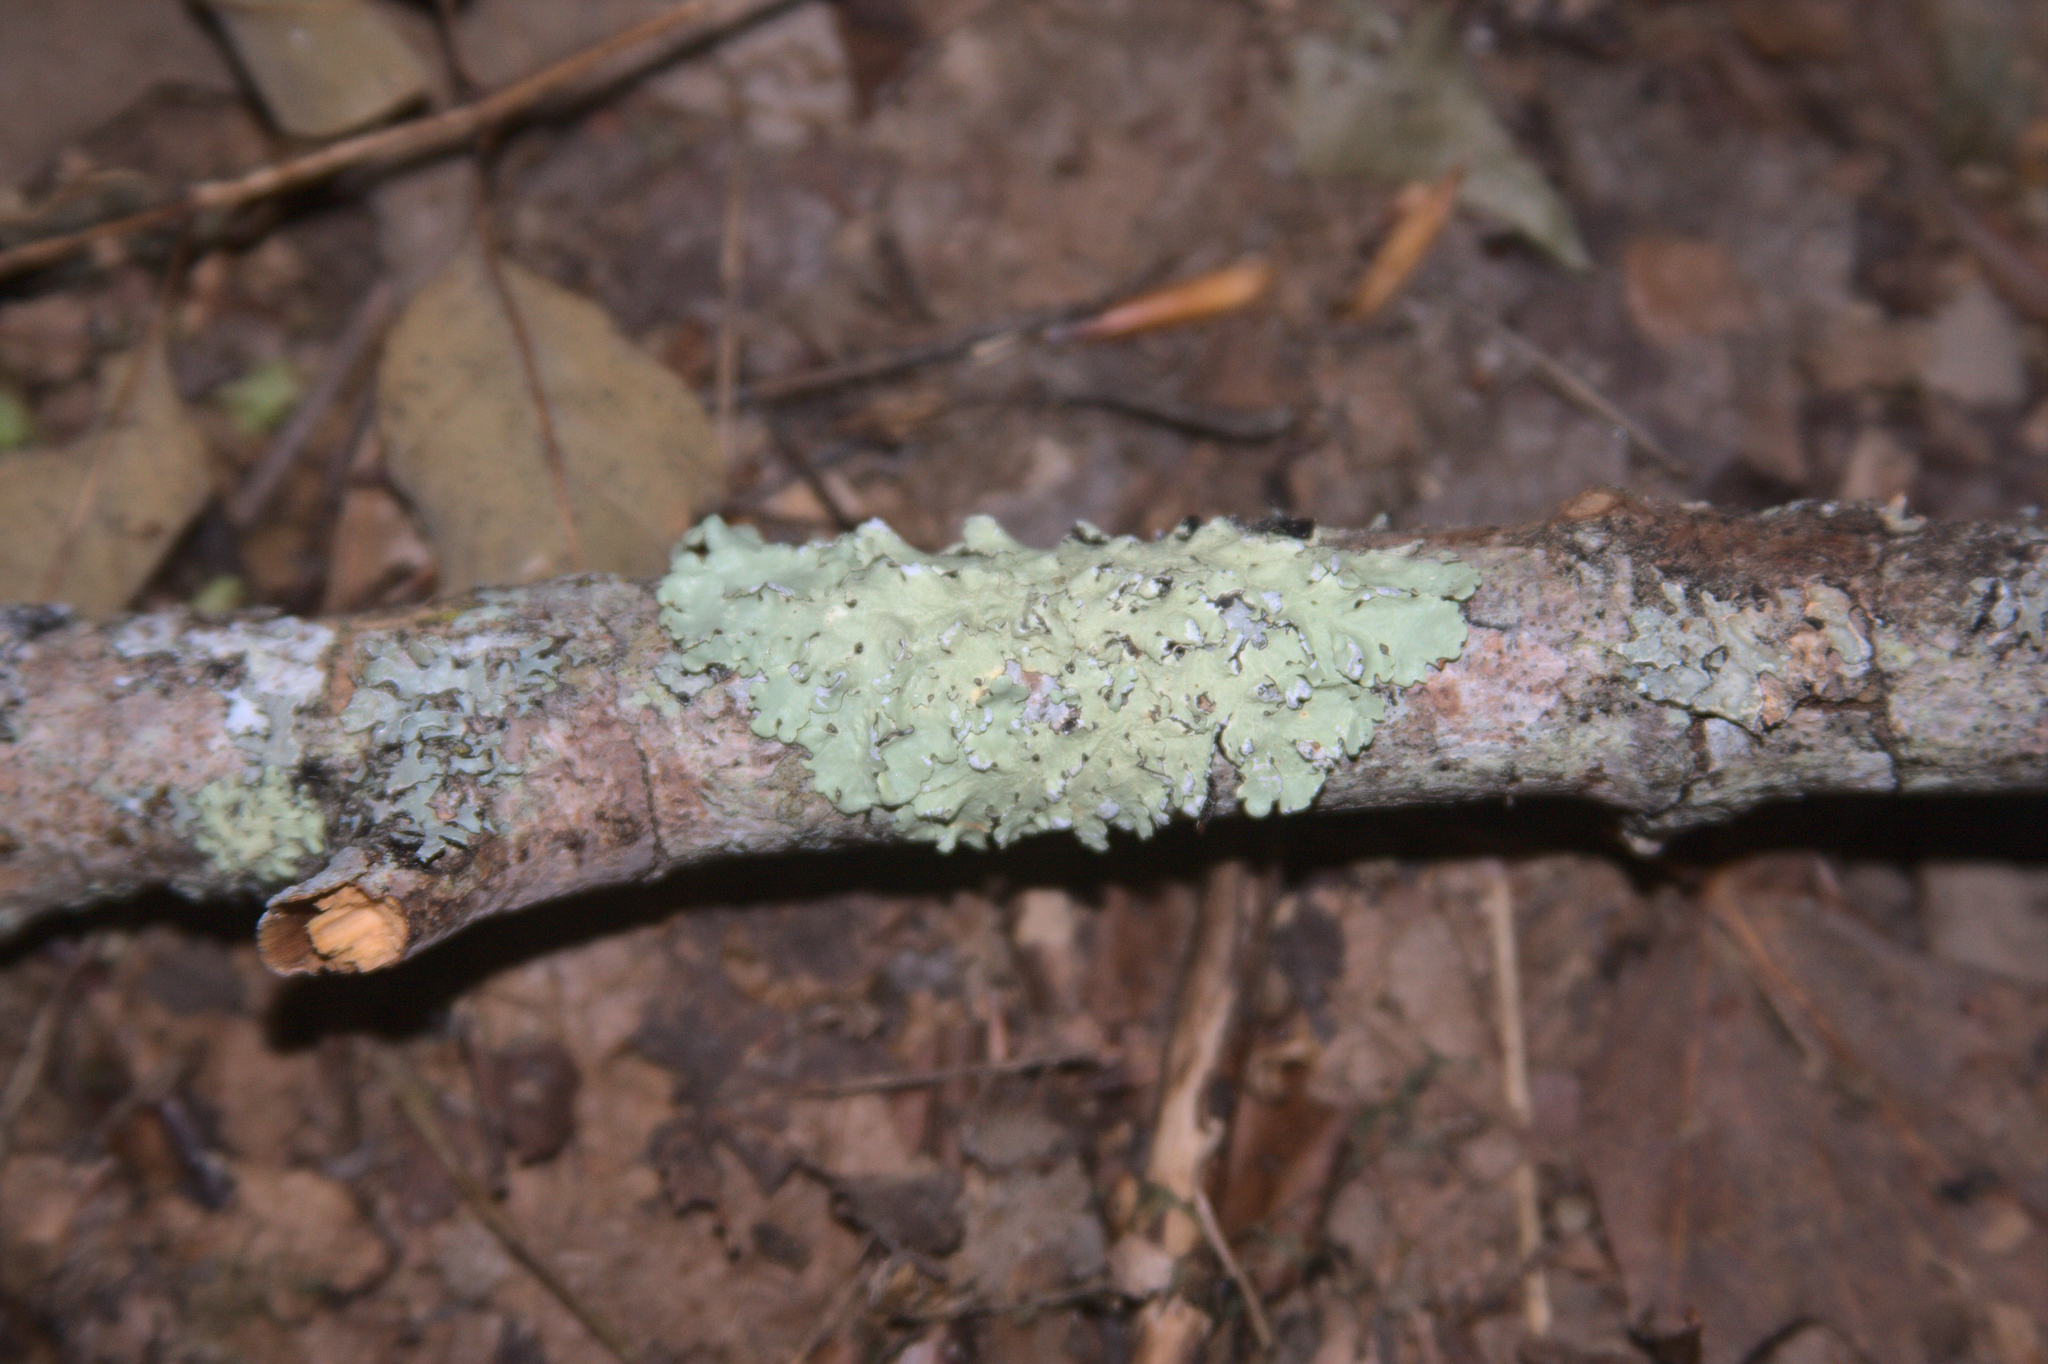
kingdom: Fungi
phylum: Ascomycota
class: Lecanoromycetes
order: Lecanorales
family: Parmeliaceae
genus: Flavoparmelia
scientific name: Flavoparmelia caperata
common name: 40-mile per hour lichen
